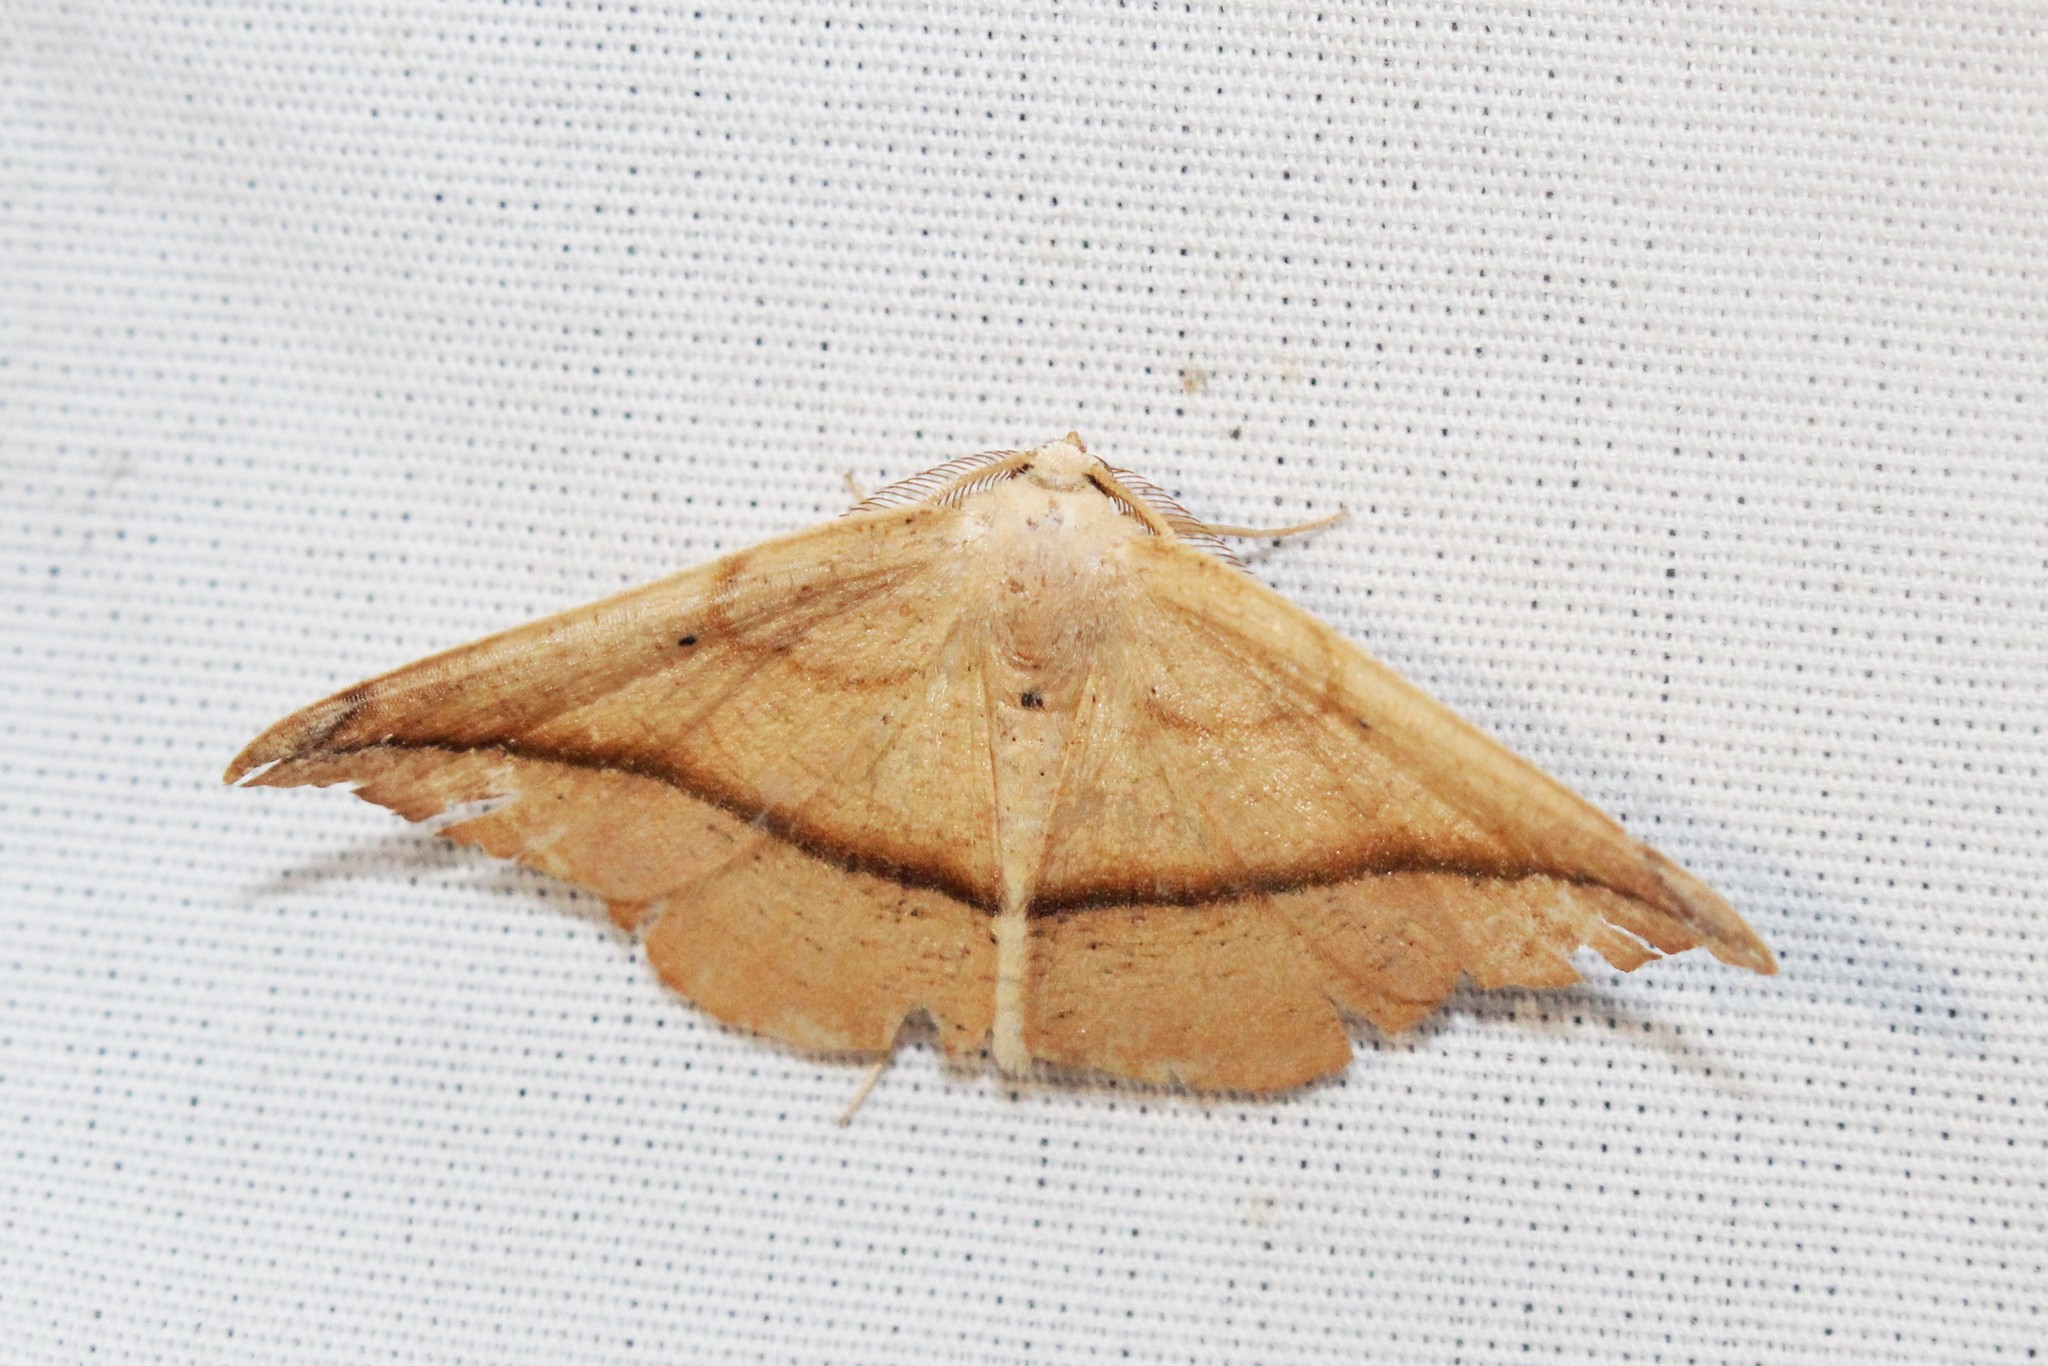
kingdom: Animalia
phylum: Arthropoda
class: Insecta
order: Lepidoptera
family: Geometridae
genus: Patalene
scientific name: Patalene olyzonaria
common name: Juniper geometer moth
